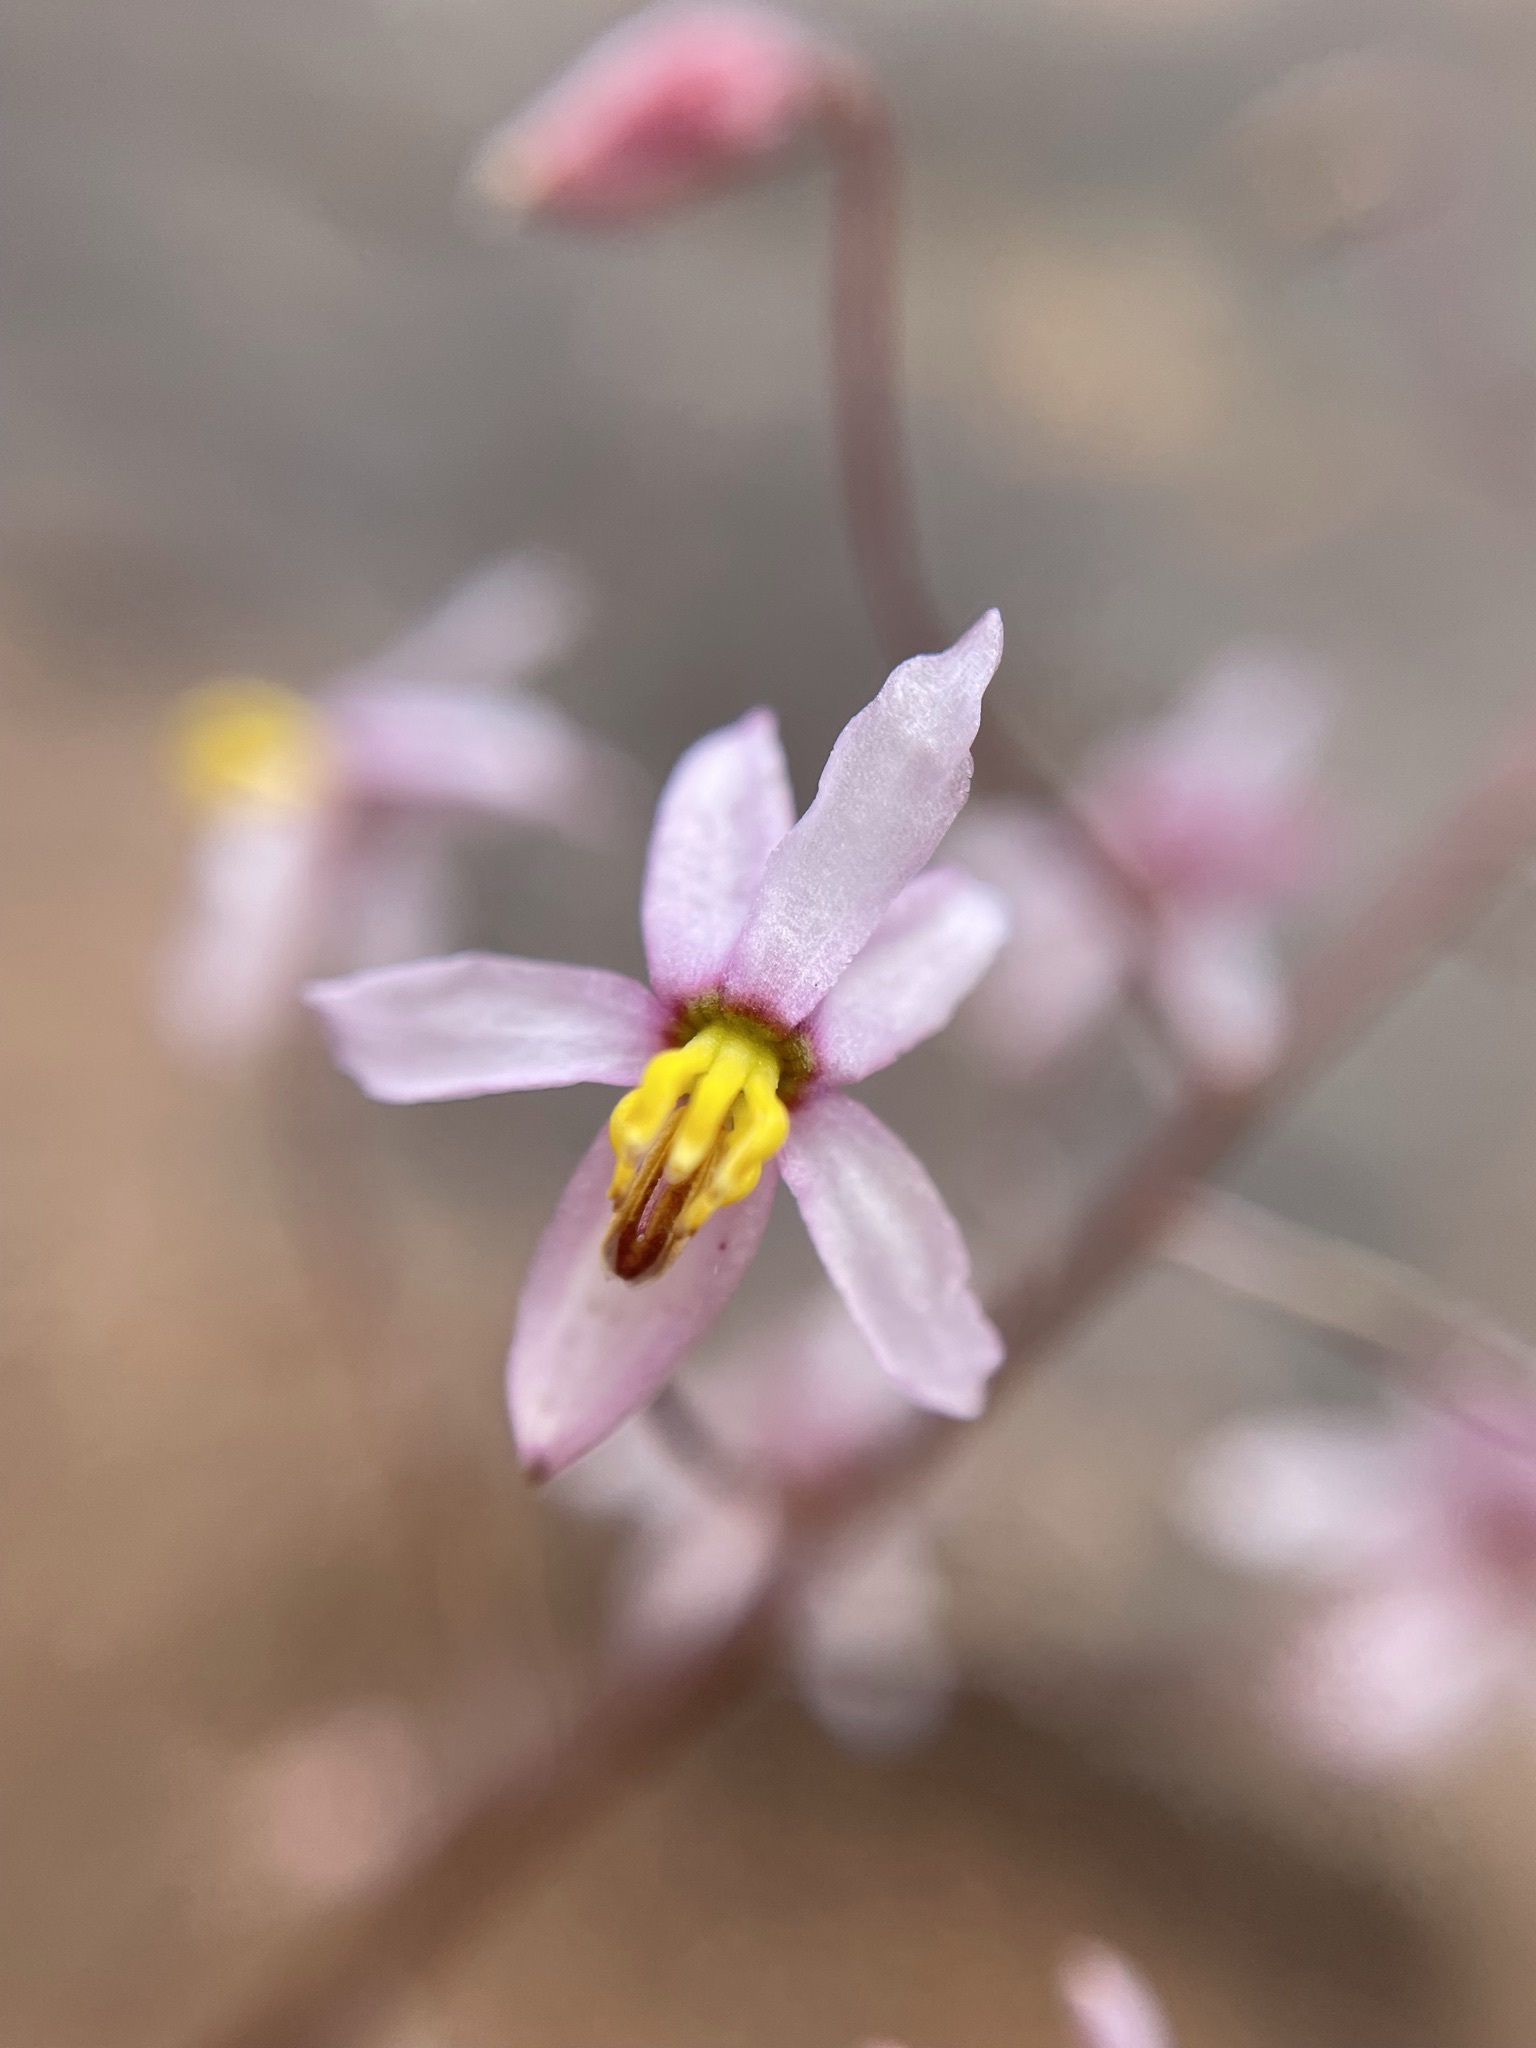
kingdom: Plantae
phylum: Tracheophyta
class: Liliopsida
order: Asparagales
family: Tecophilaeaceae
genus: Cyanella
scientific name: Cyanella hyacinthoides
